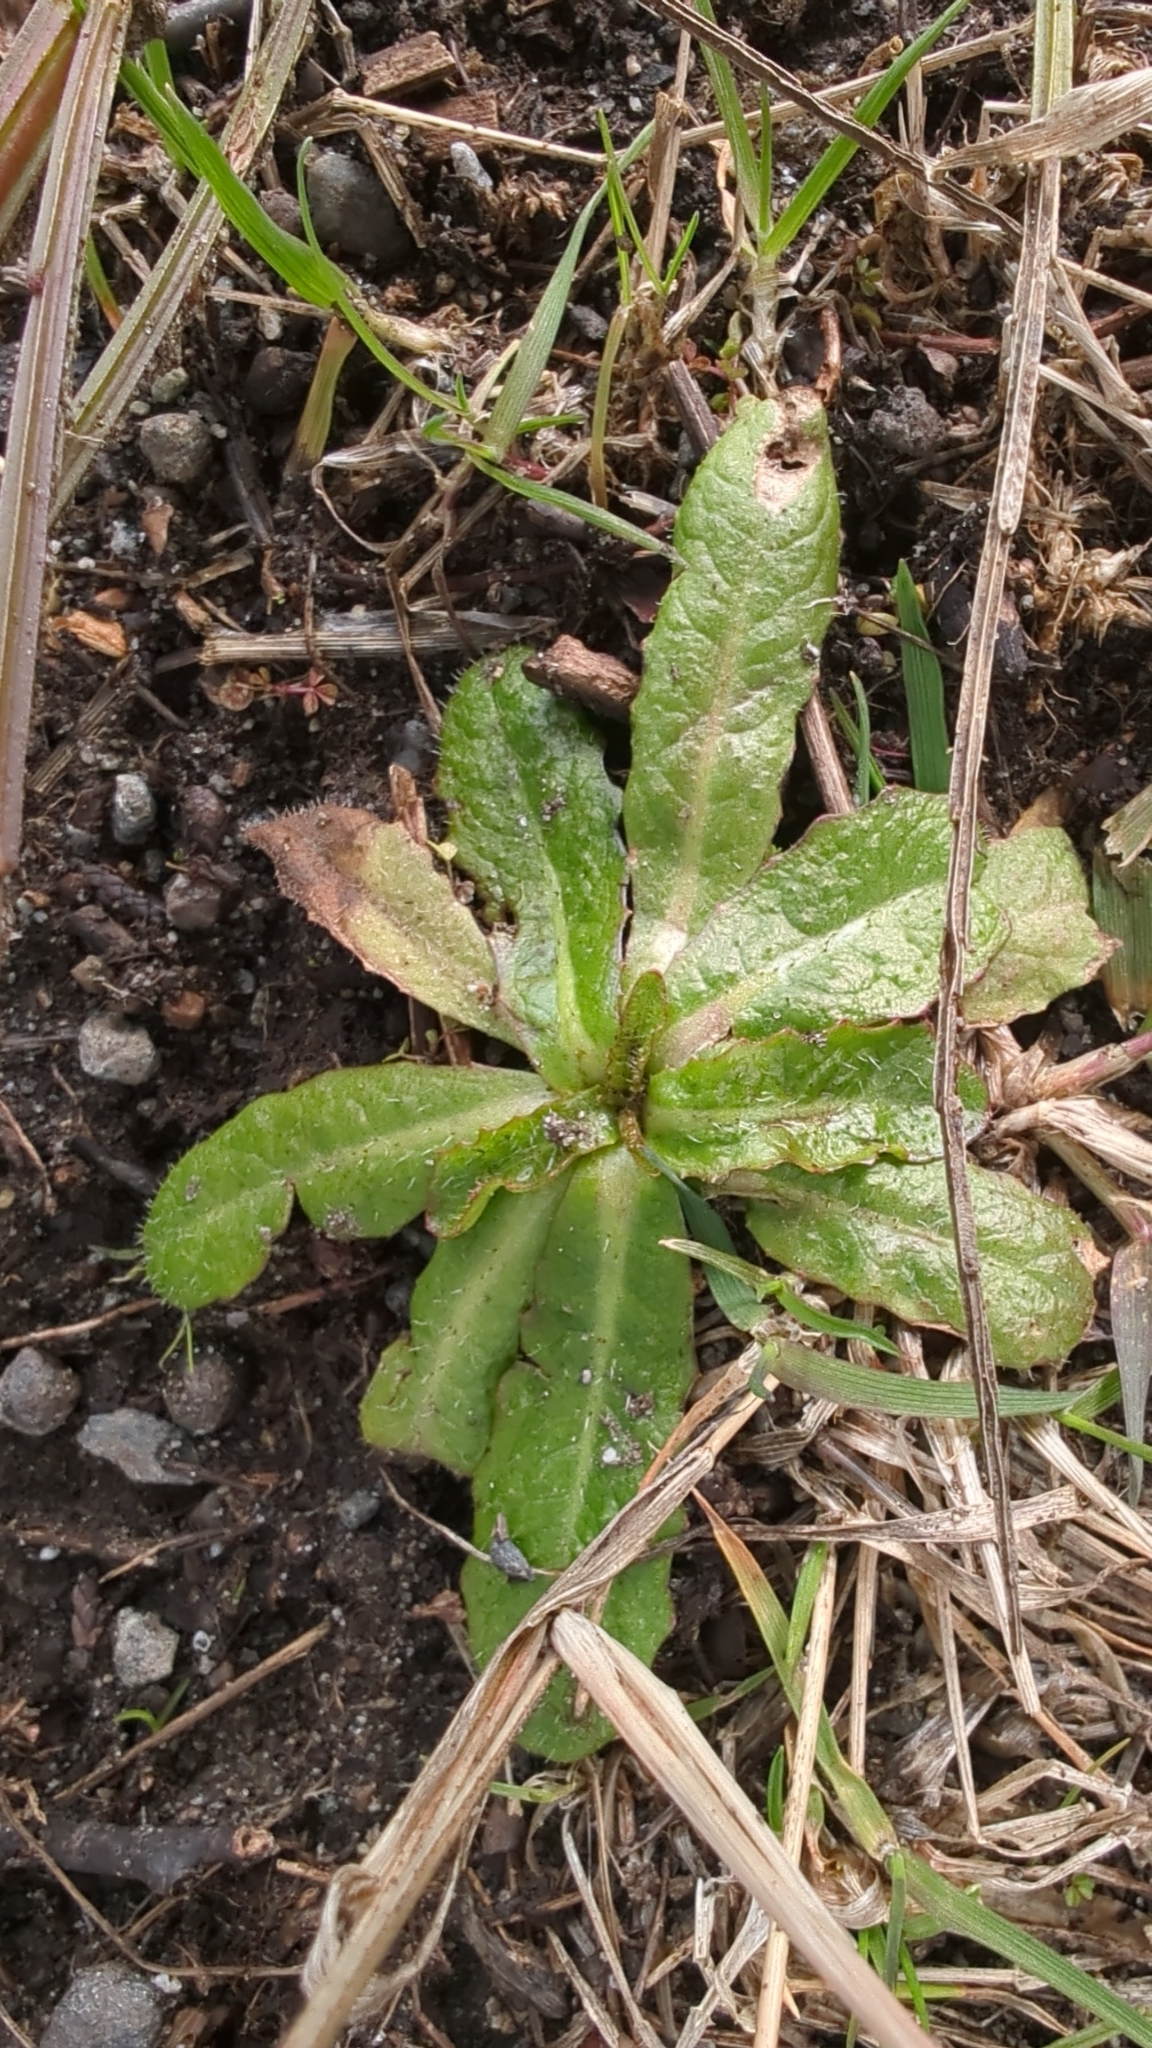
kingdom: Plantae
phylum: Tracheophyta
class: Magnoliopsida
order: Asterales
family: Asteraceae
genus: Hypochaeris
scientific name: Hypochaeris radicata
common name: Flatweed
